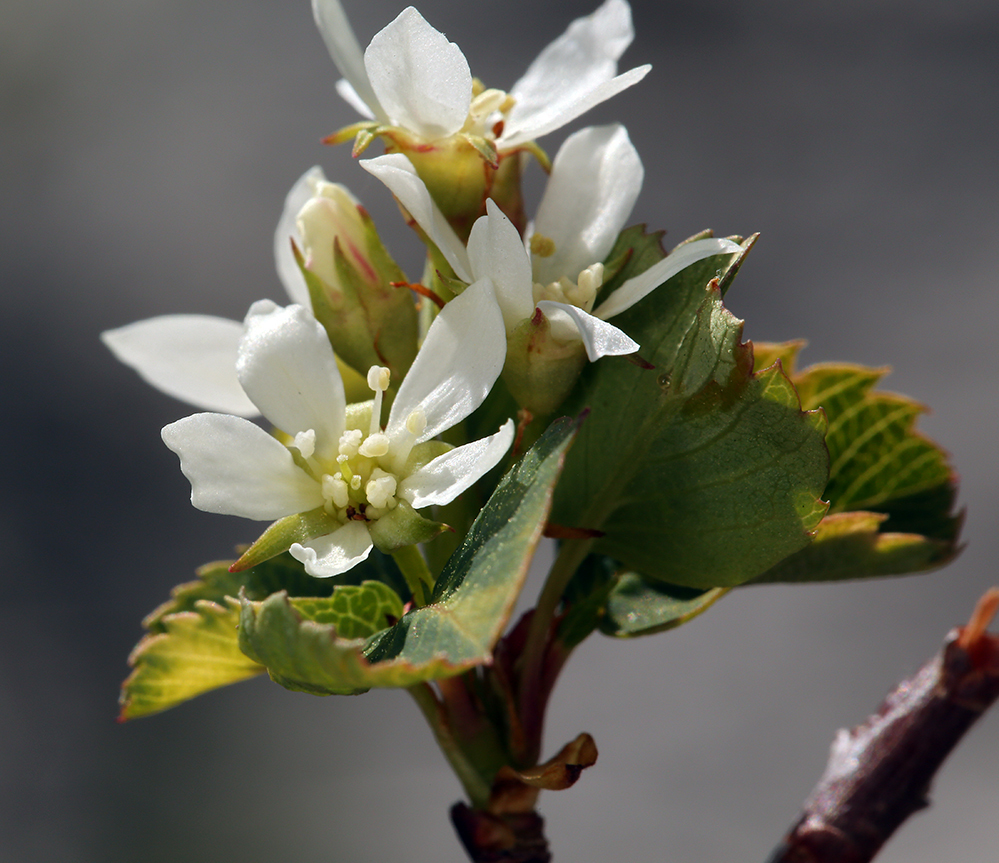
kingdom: Plantae
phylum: Tracheophyta
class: Magnoliopsida
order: Rosales
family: Rosaceae
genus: Amelanchier
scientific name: Amelanchier utahensis
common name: Utah serviceberry
